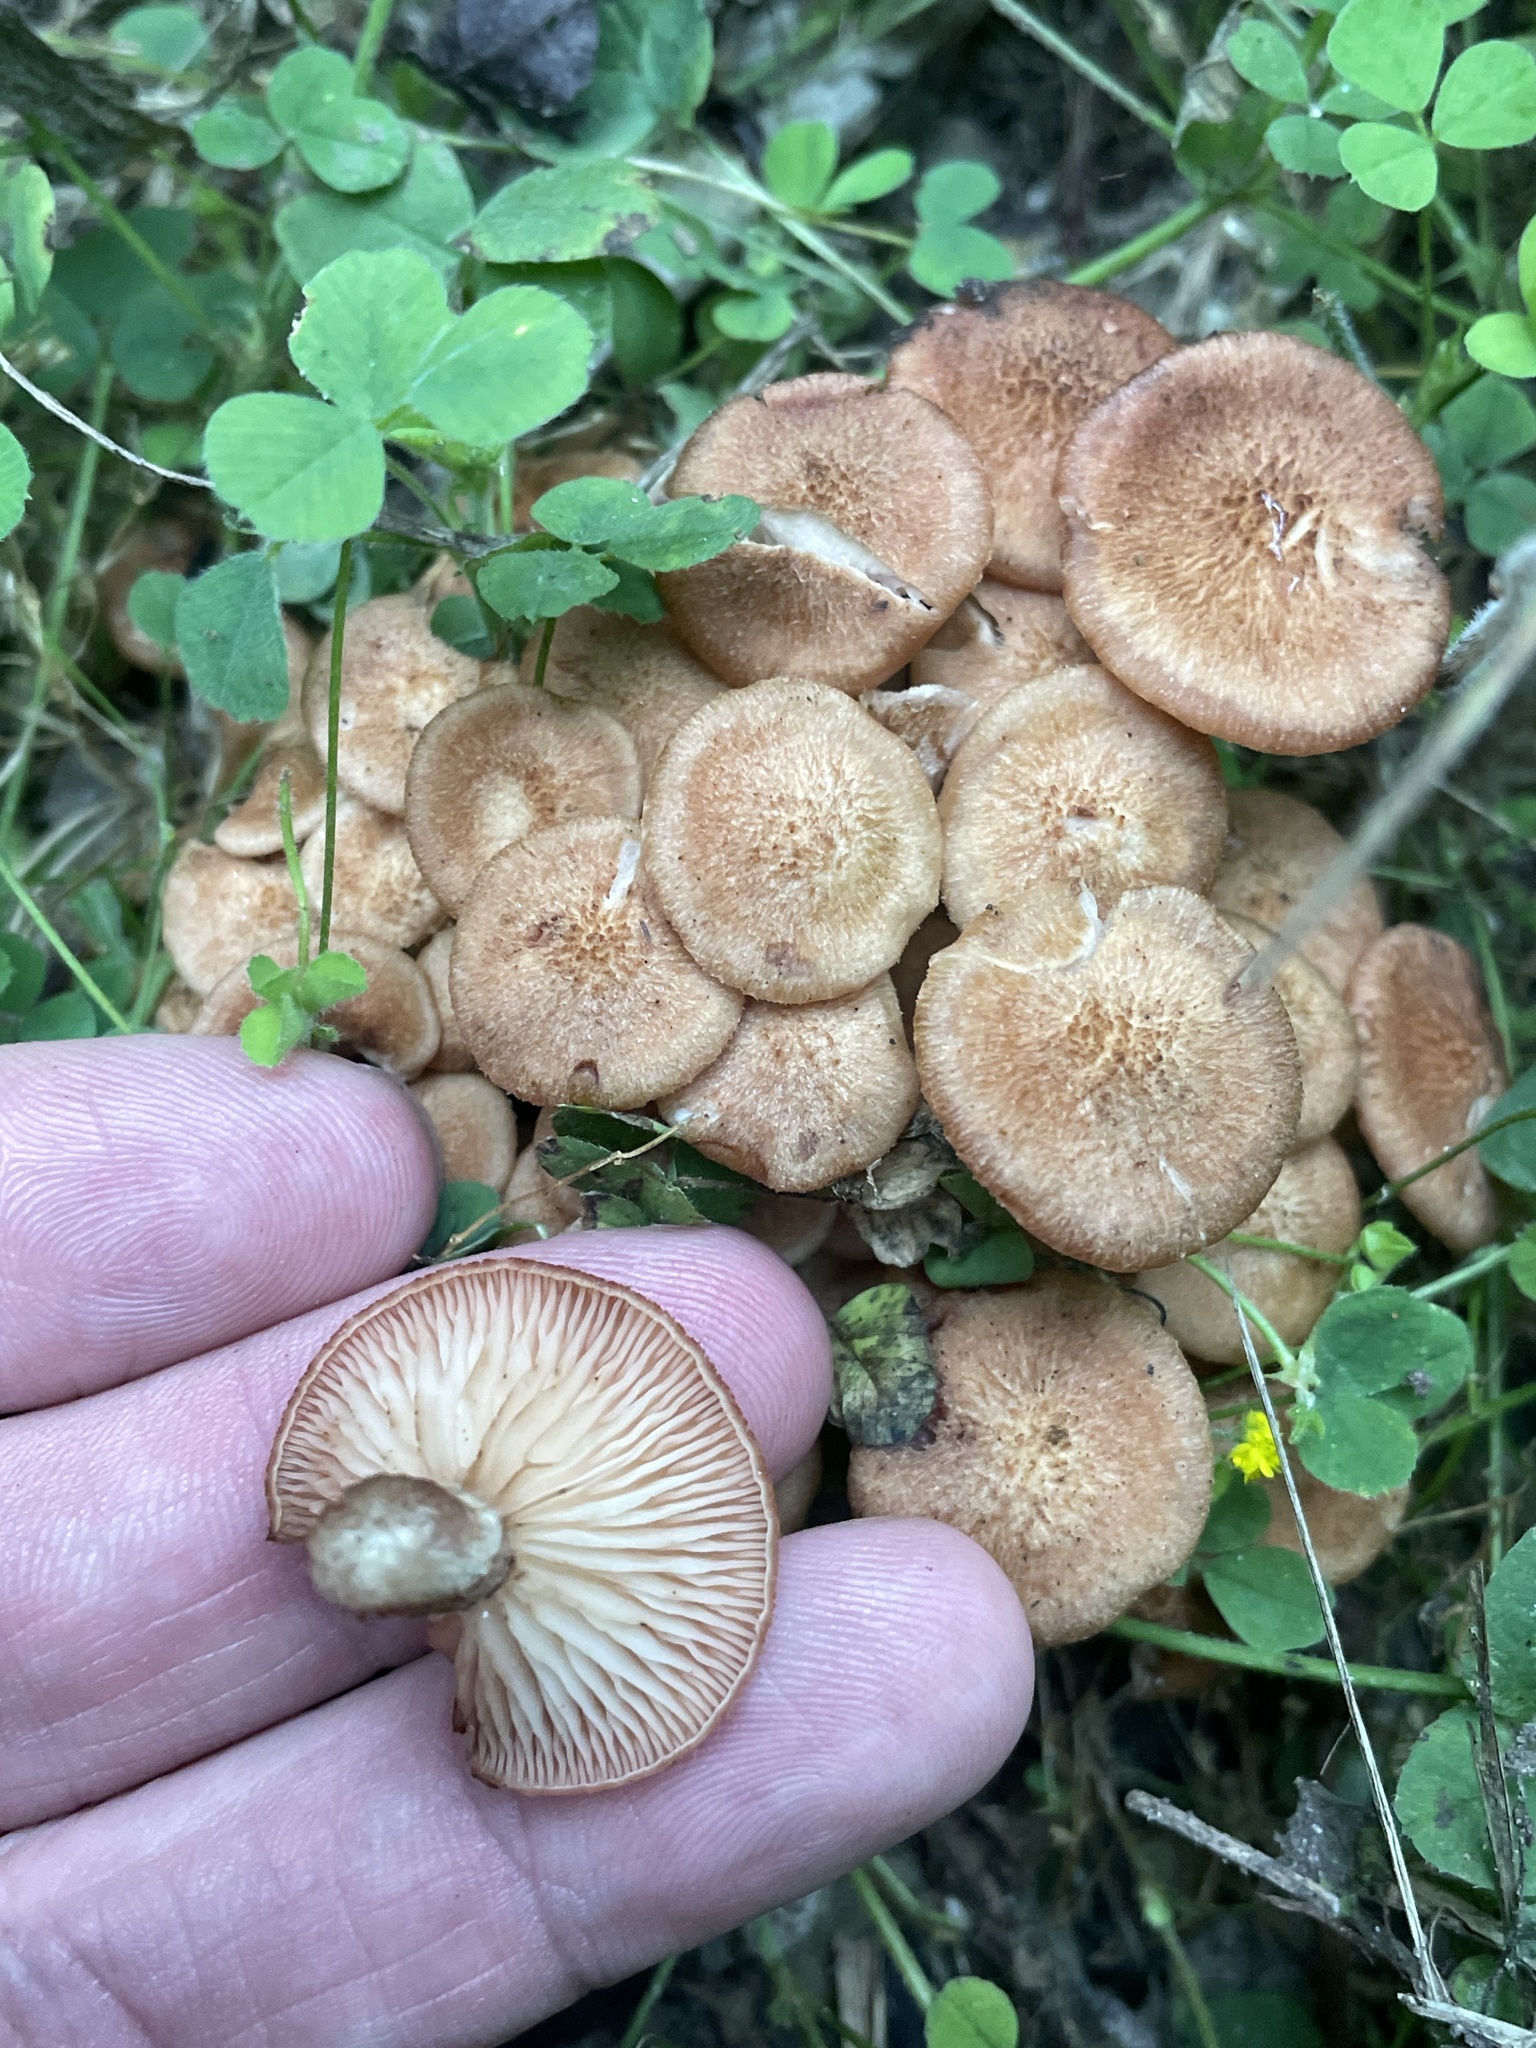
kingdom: Fungi
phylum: Basidiomycota
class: Agaricomycetes
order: Agaricales
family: Physalacriaceae
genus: Desarmillaria
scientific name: Desarmillaria caespitosa
